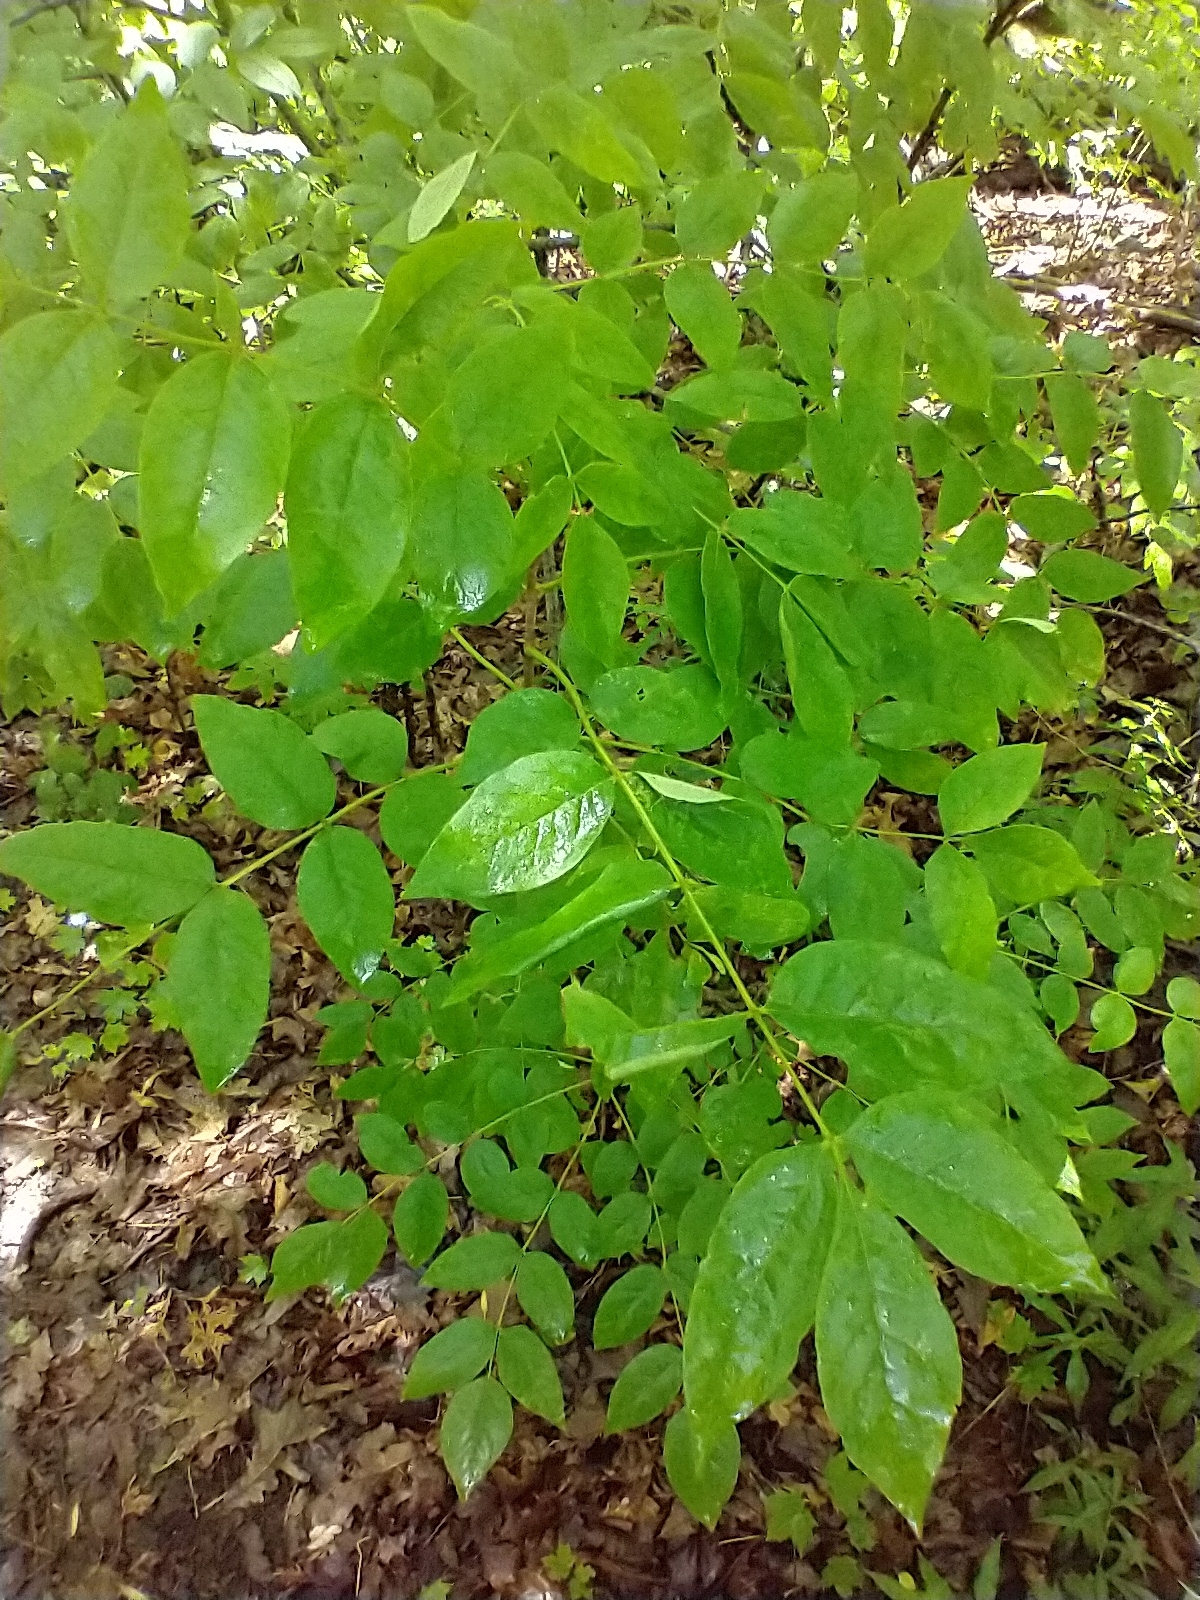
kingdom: Plantae
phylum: Tracheophyta
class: Magnoliopsida
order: Sapindales
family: Rutaceae
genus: Zanthoxylum
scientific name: Zanthoxylum americanum
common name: Northern prickly-ash
